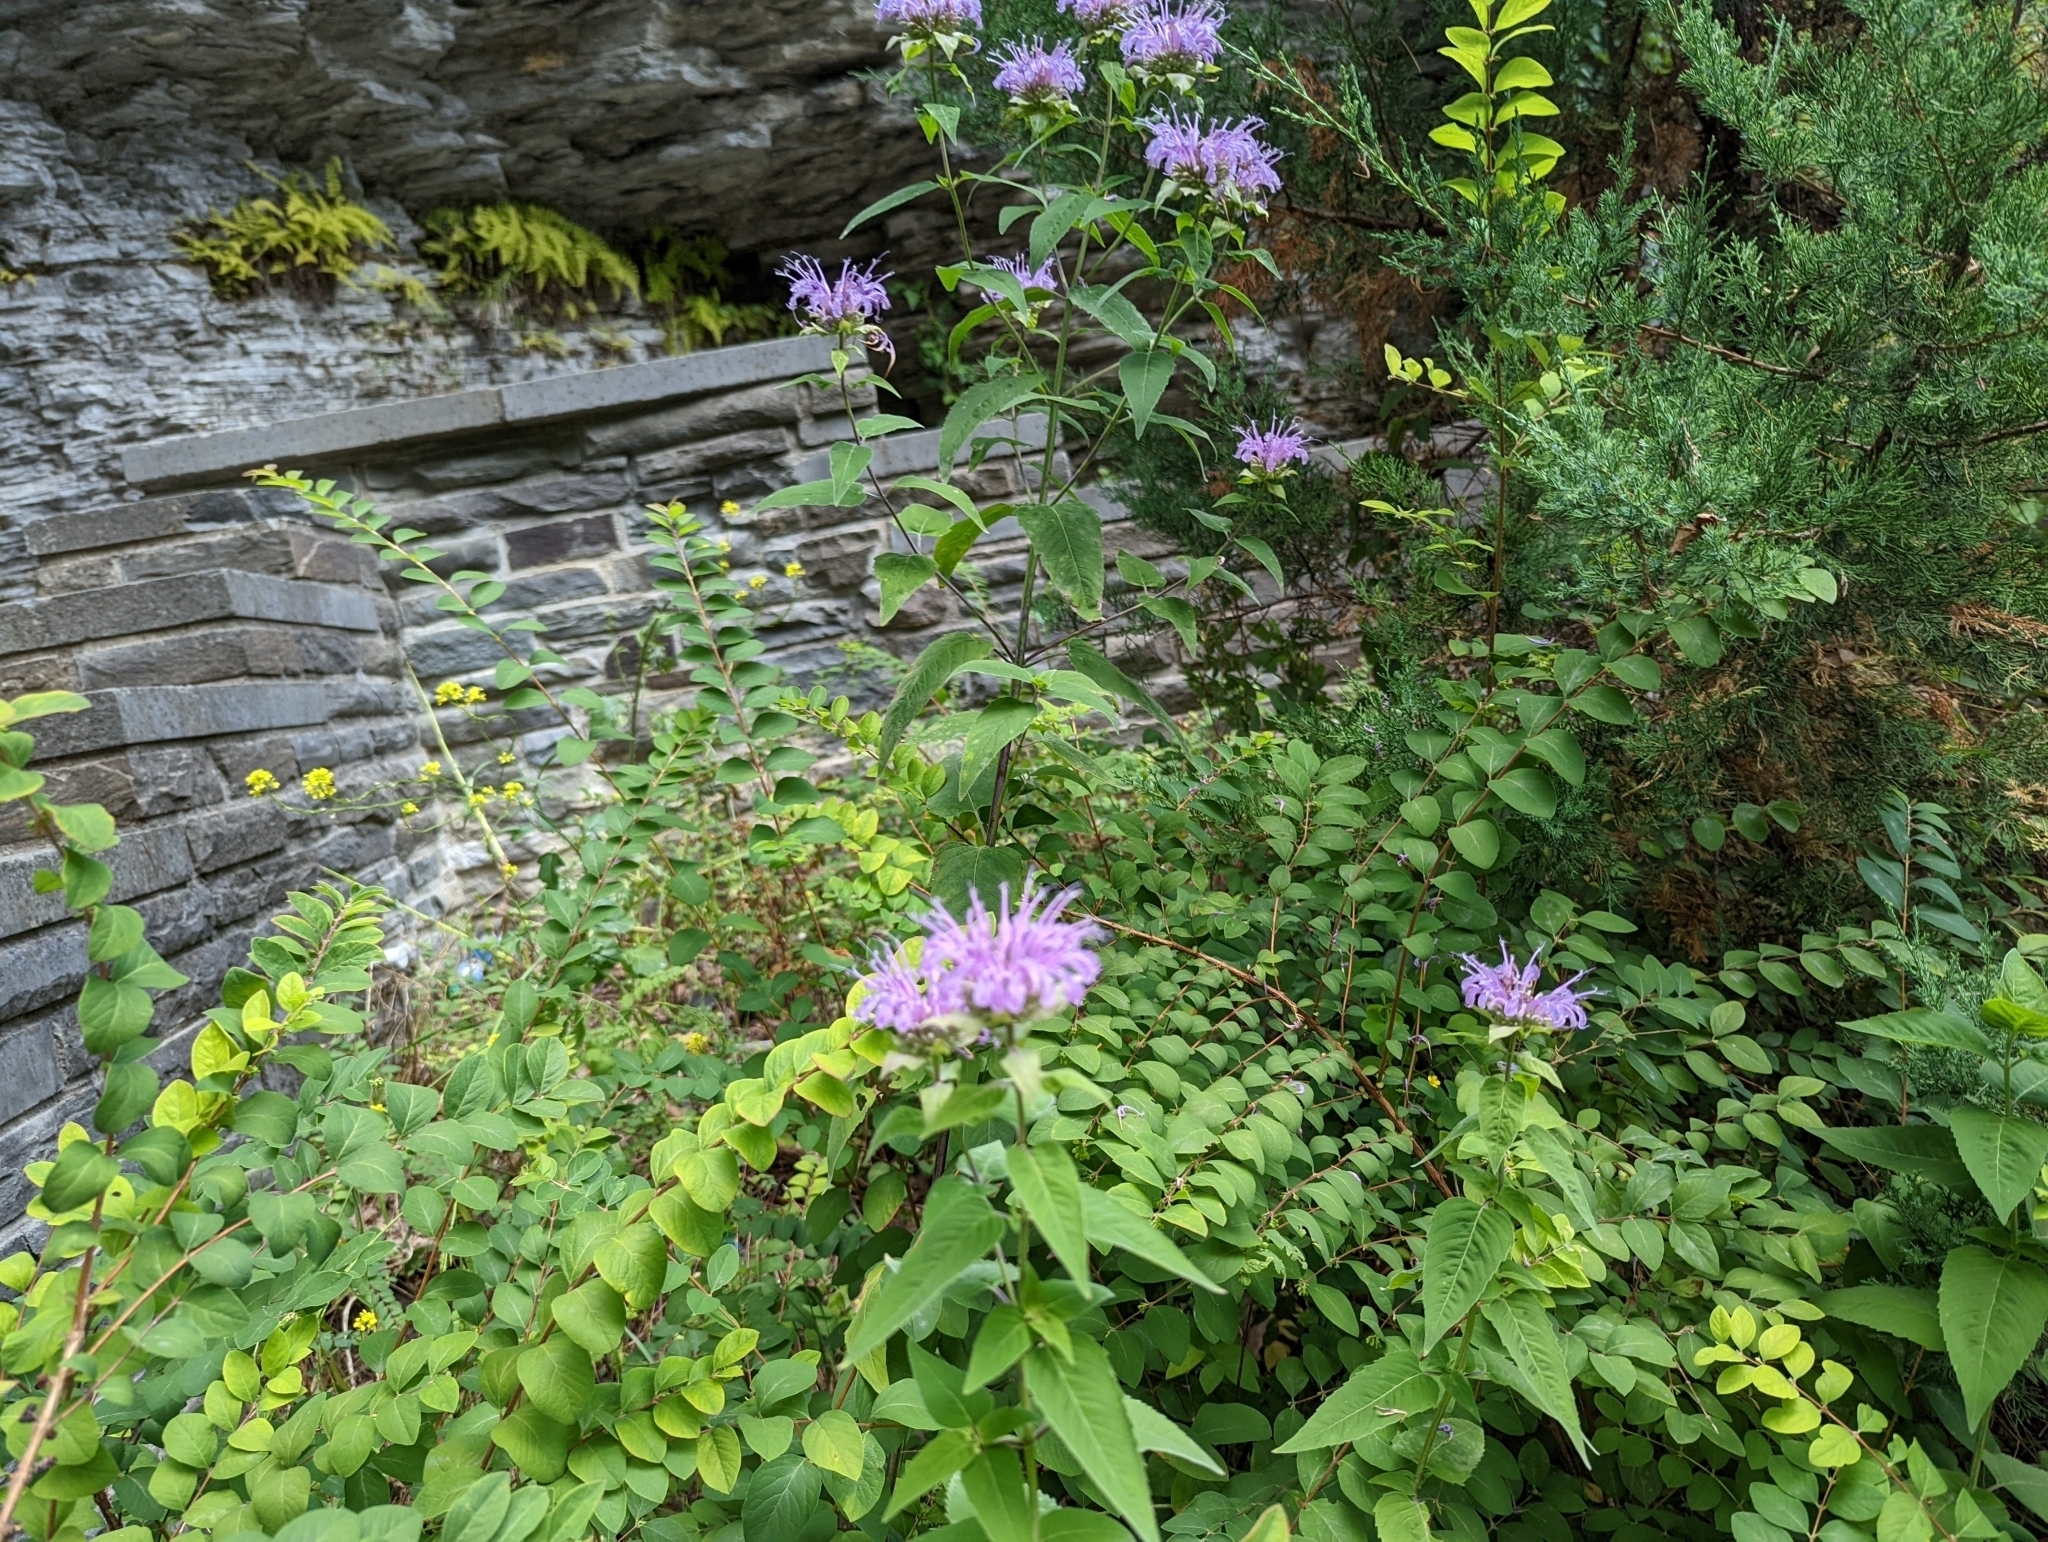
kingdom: Plantae
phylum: Tracheophyta
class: Magnoliopsida
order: Lamiales
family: Lamiaceae
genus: Monarda
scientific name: Monarda fistulosa
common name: Purple beebalm
